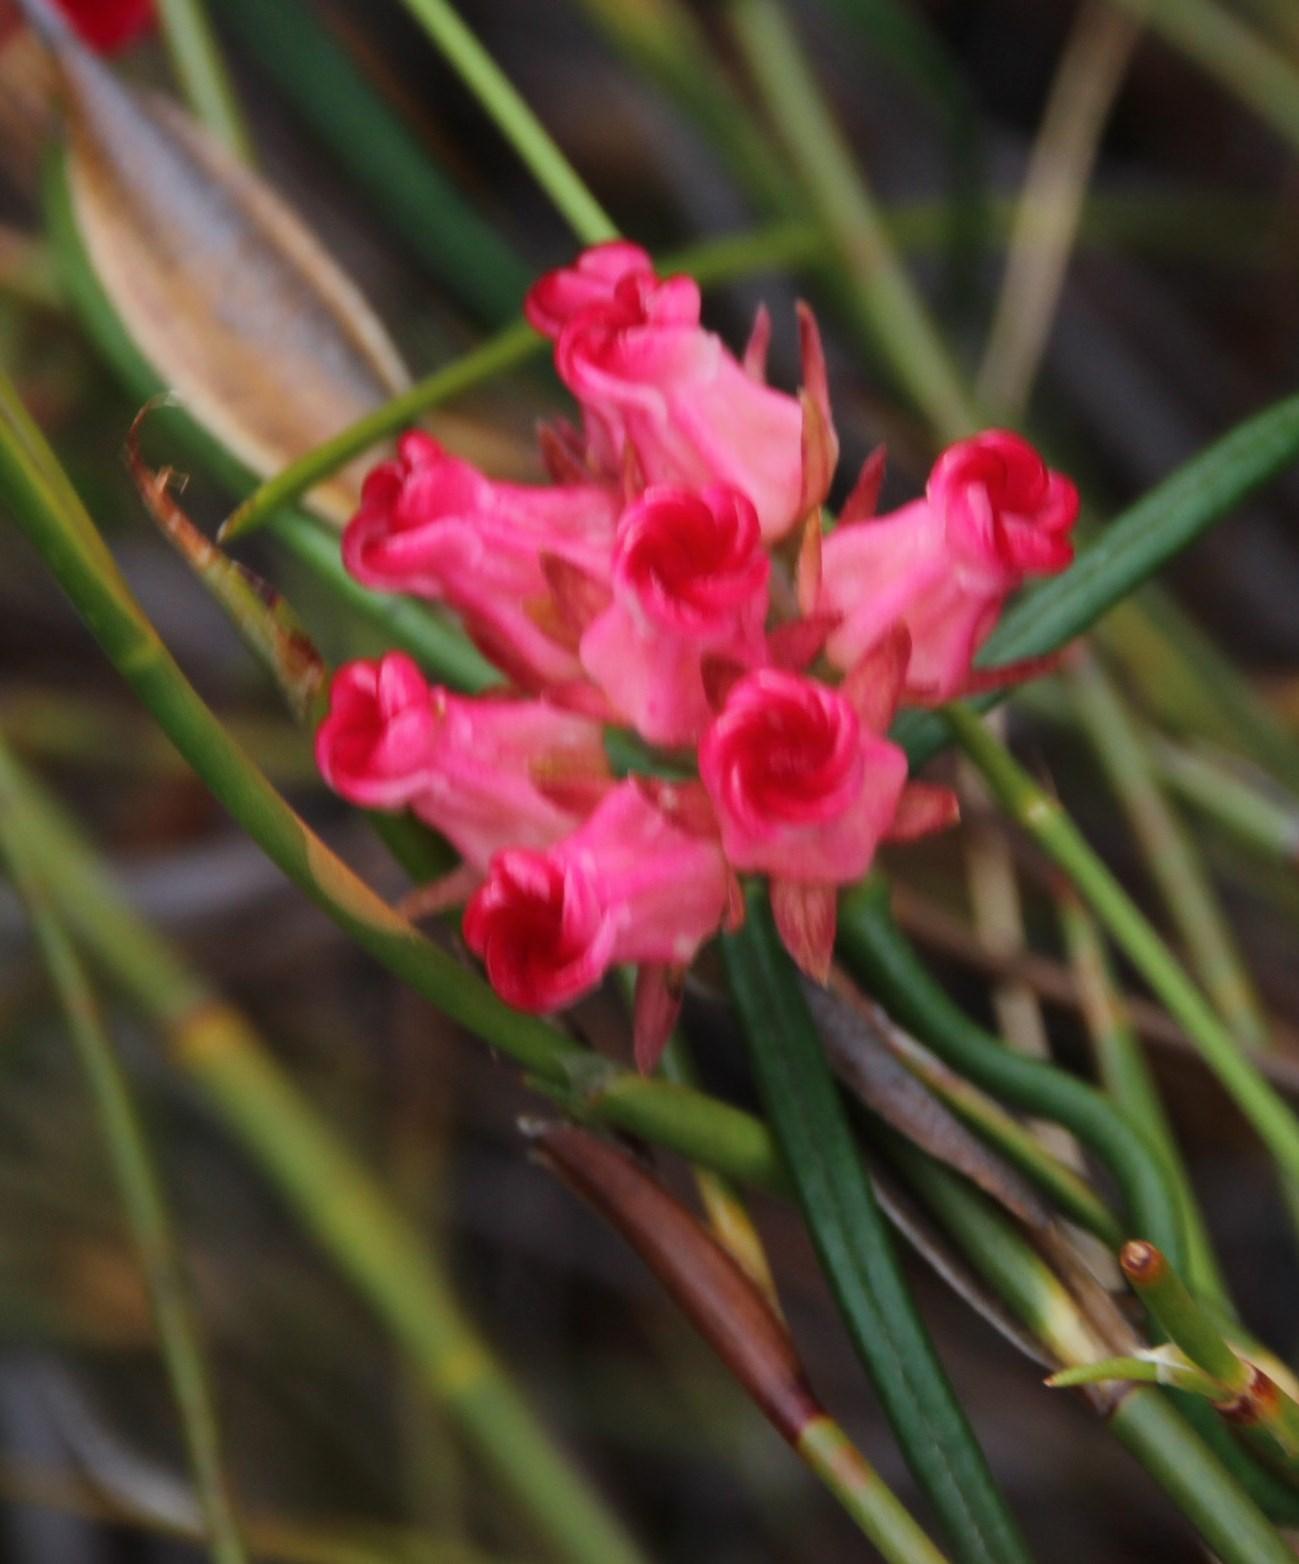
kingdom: Plantae
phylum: Tracheophyta
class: Magnoliopsida
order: Gentianales
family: Apocynaceae
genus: Microloma
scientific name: Microloma tenuifolium
